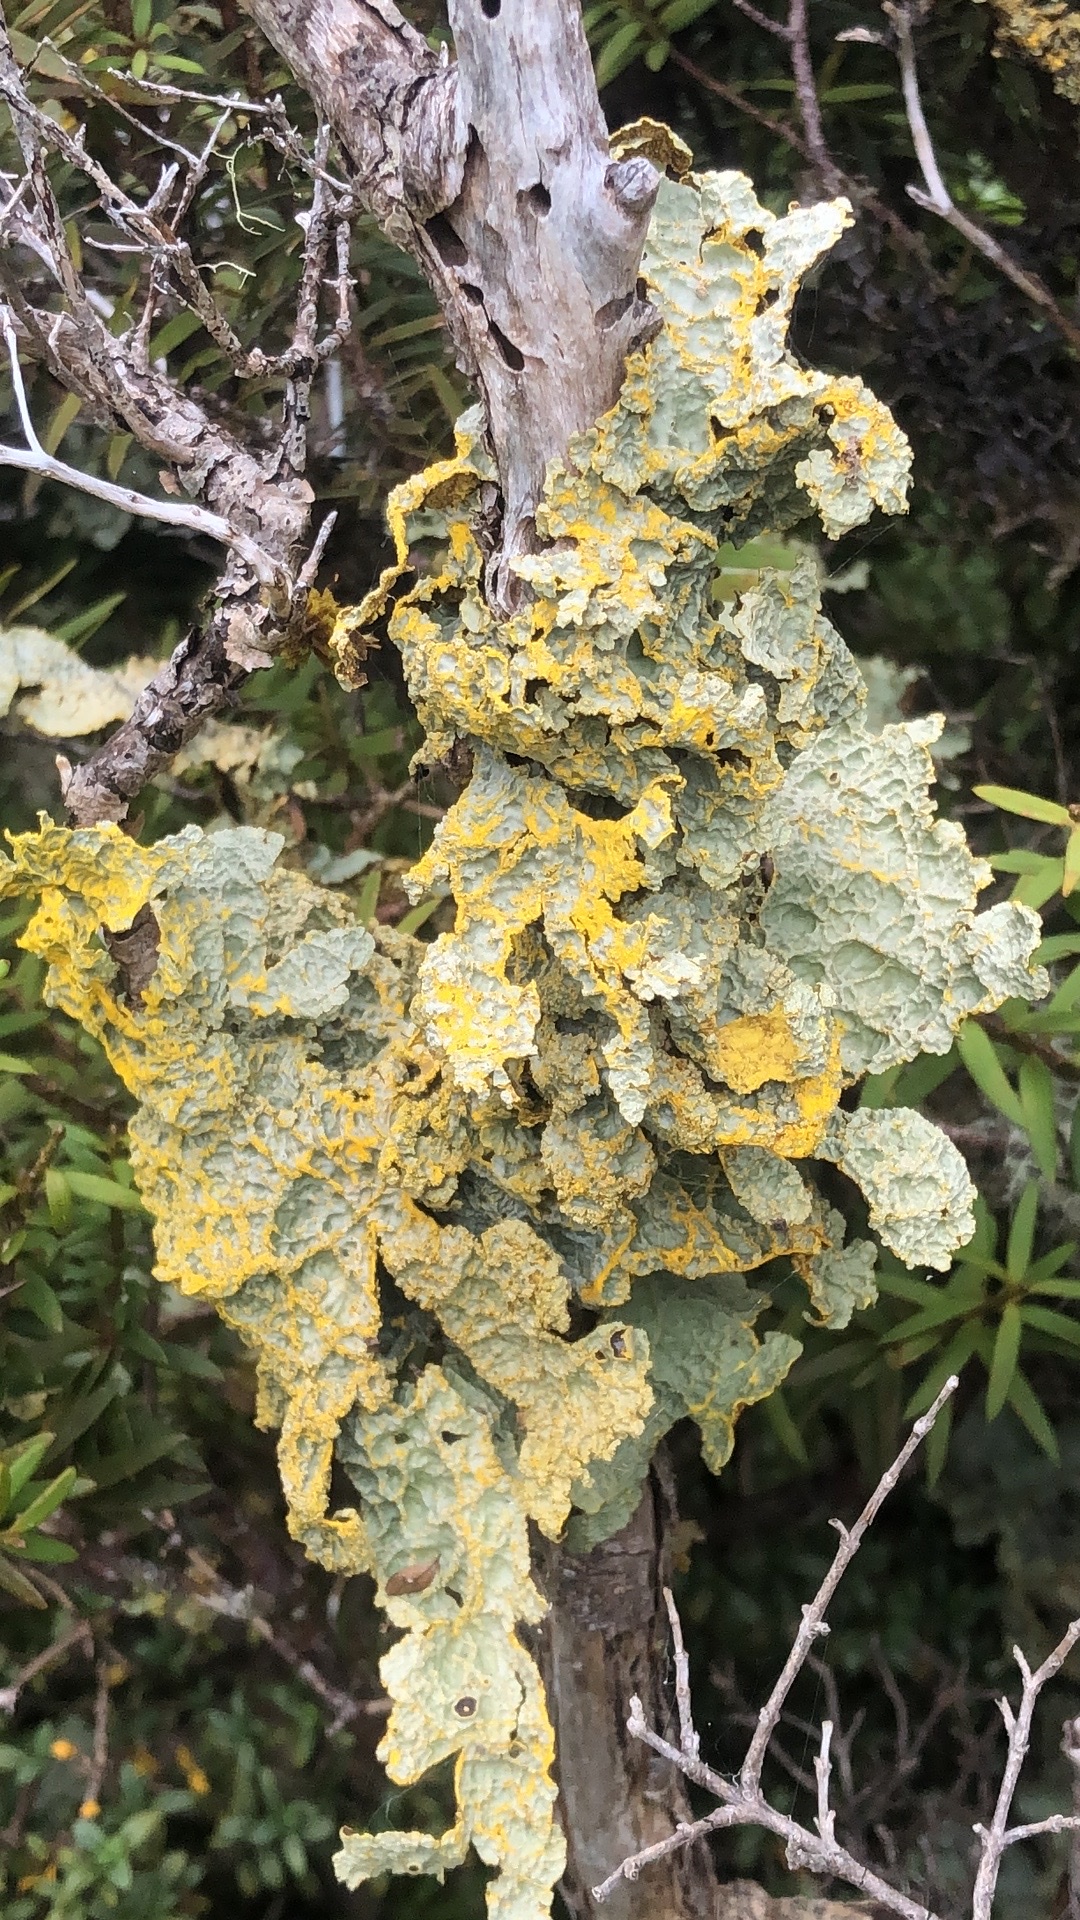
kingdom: Fungi
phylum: Ascomycota
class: Lecanoromycetes
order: Peltigerales
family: Lobariaceae
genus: Yarrumia
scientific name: Yarrumia coronata
